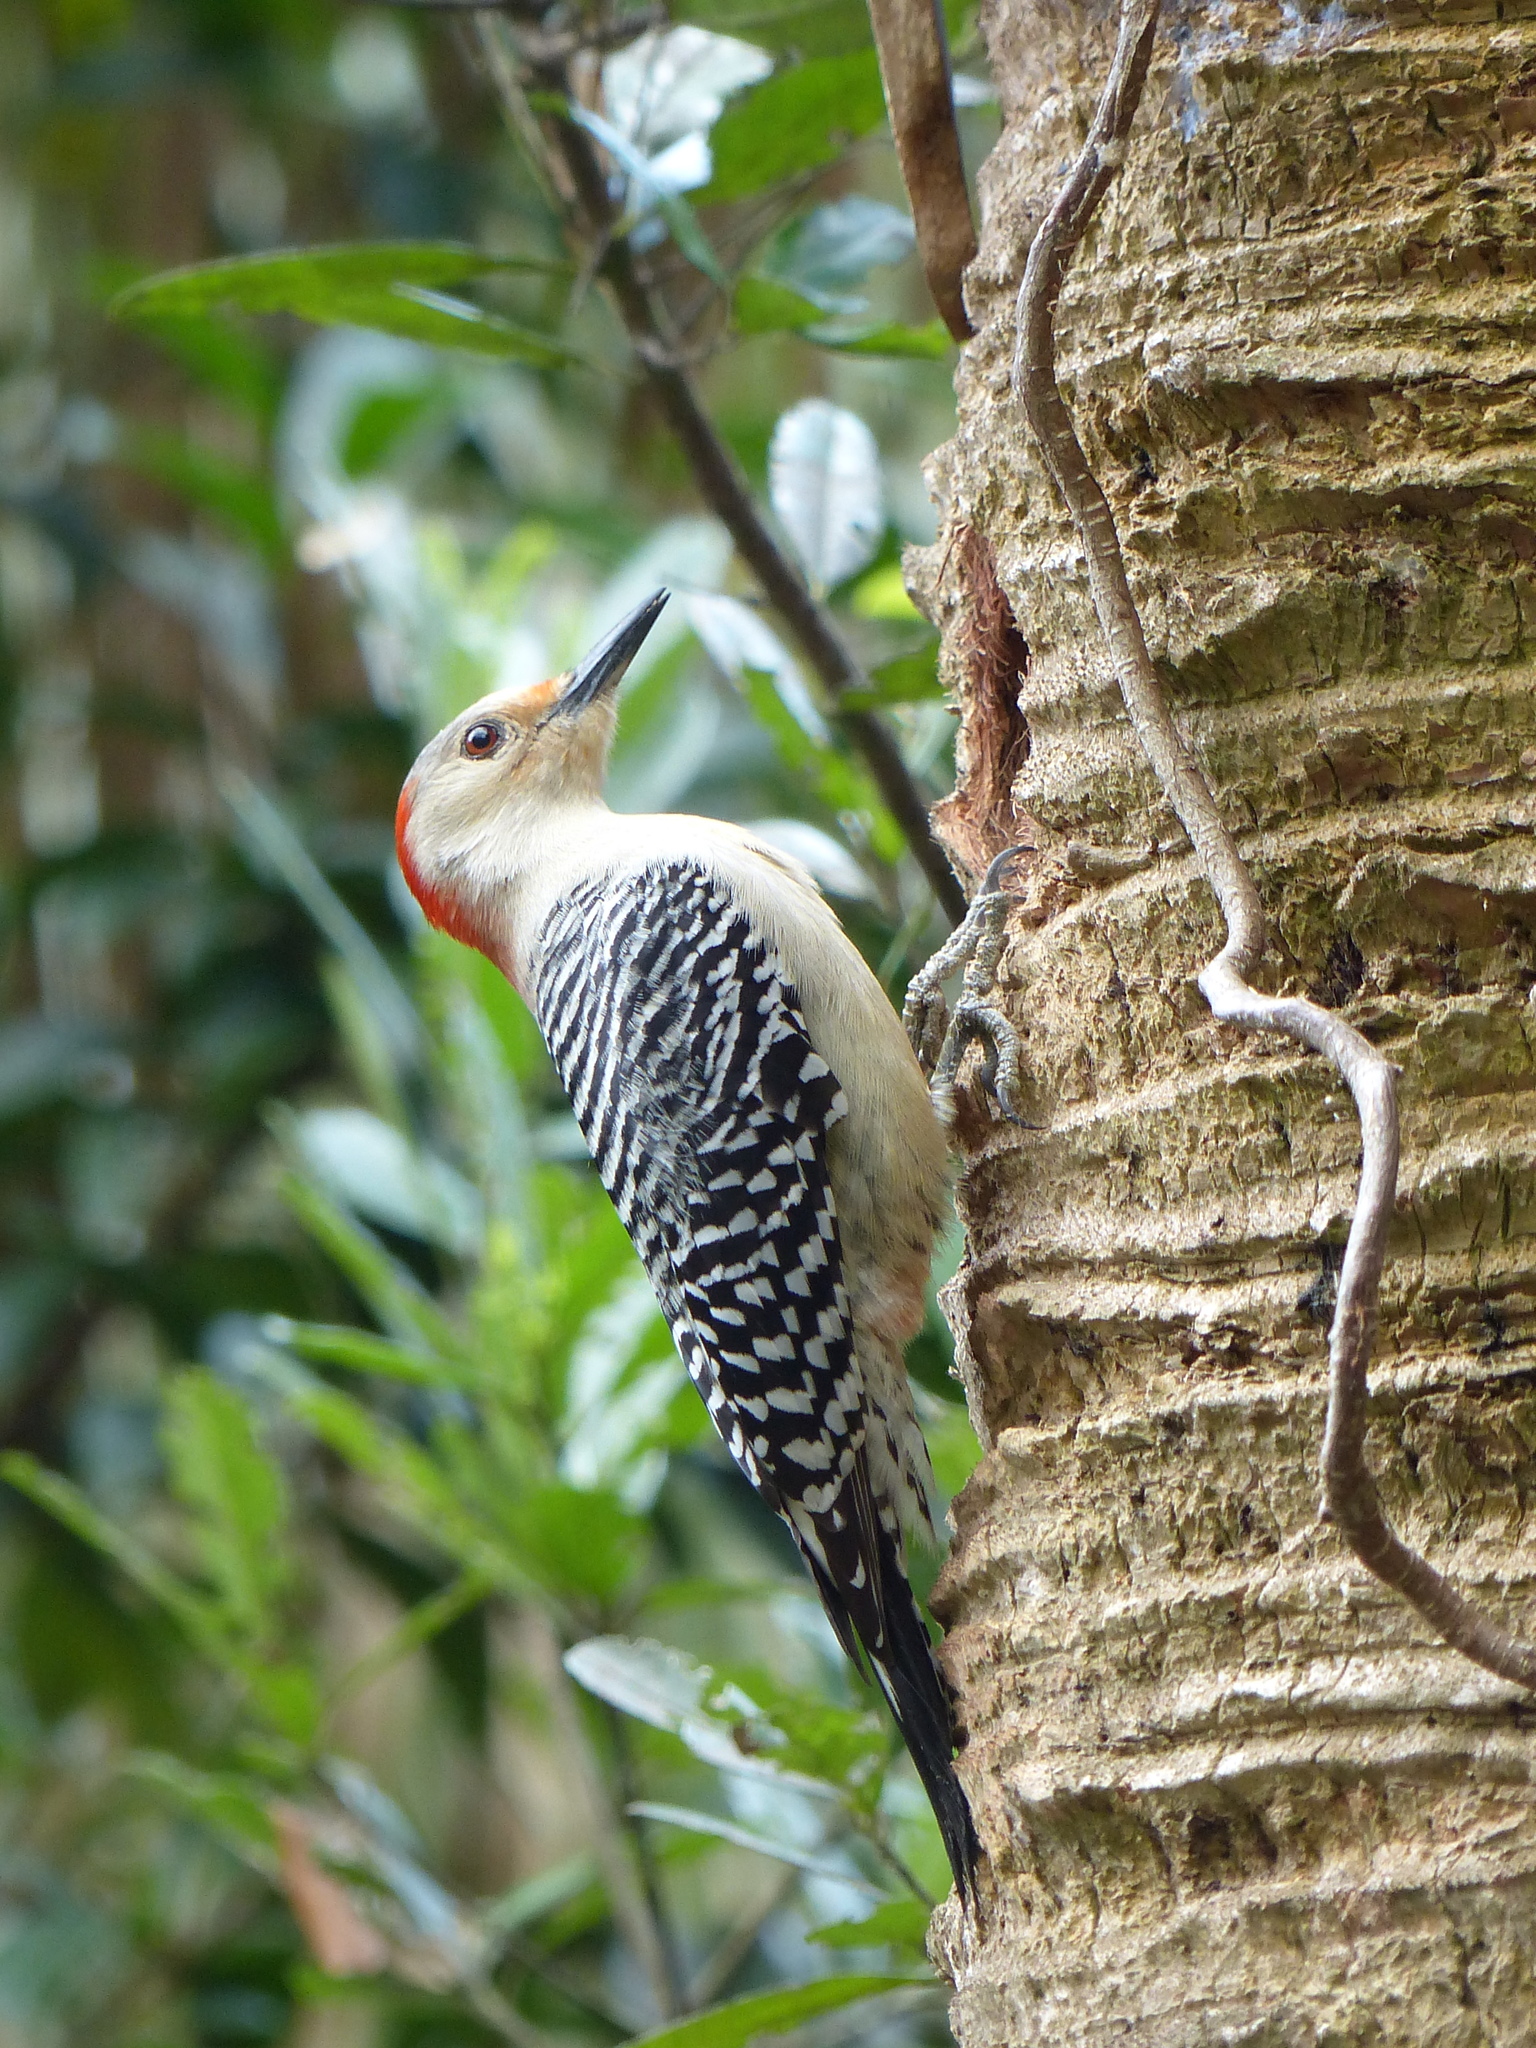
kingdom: Animalia
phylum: Chordata
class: Aves
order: Piciformes
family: Picidae
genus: Melanerpes
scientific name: Melanerpes carolinus
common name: Red-bellied woodpecker
